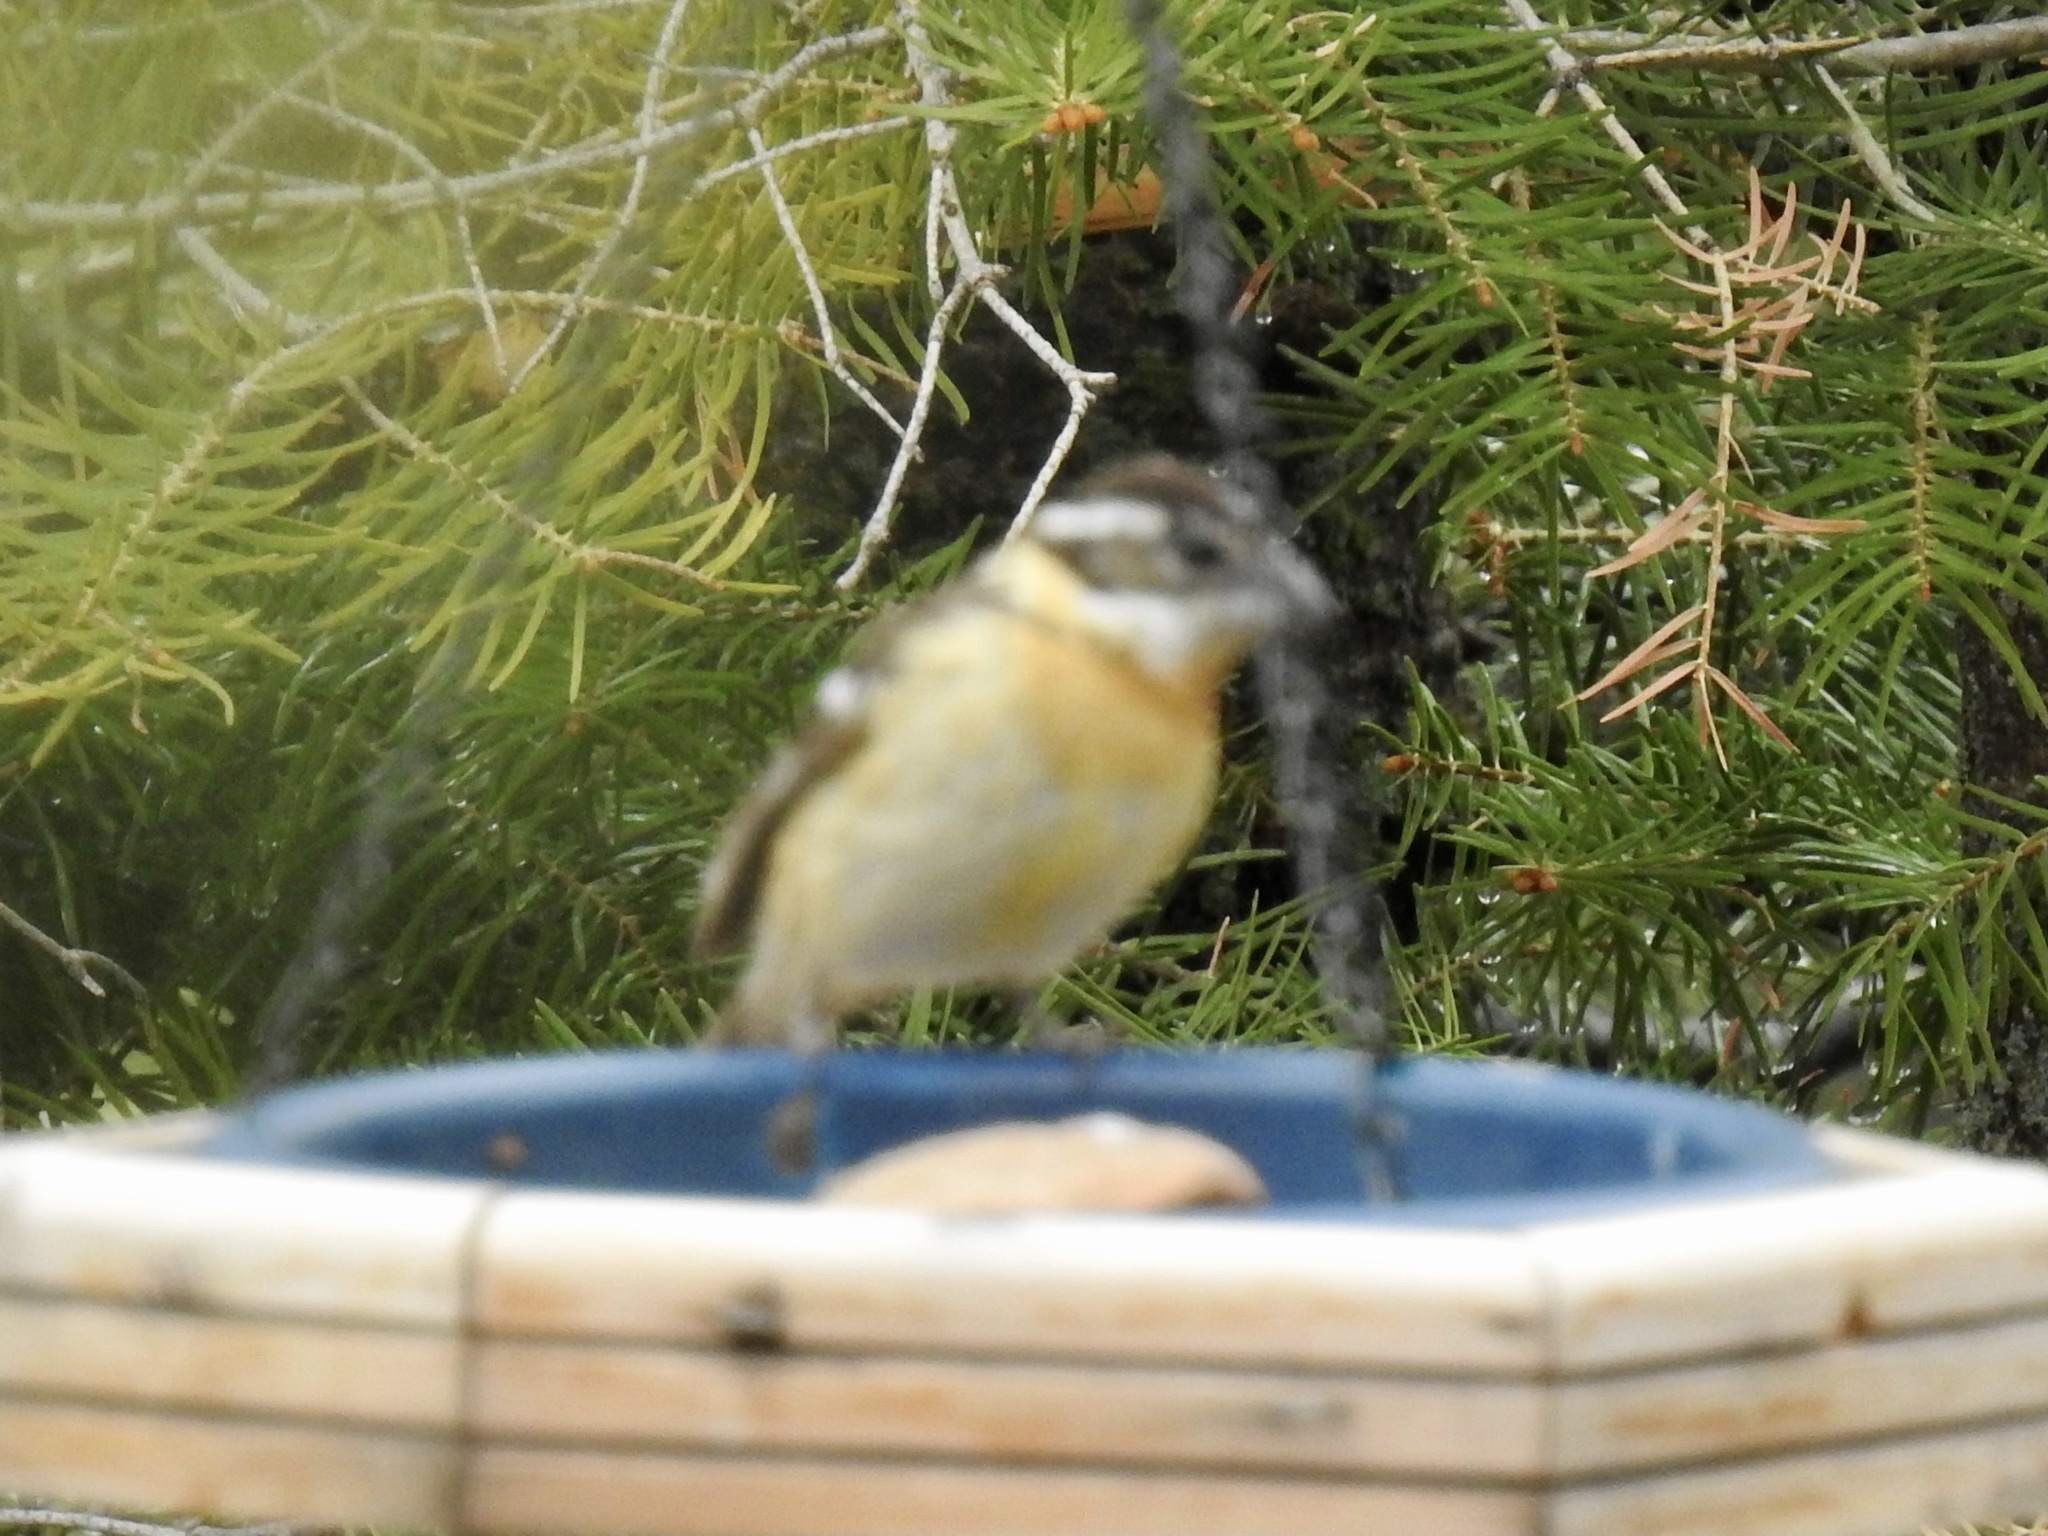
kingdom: Animalia
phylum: Chordata
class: Aves
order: Passeriformes
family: Cardinalidae
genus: Pheucticus
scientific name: Pheucticus melanocephalus
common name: Black-headed grosbeak
